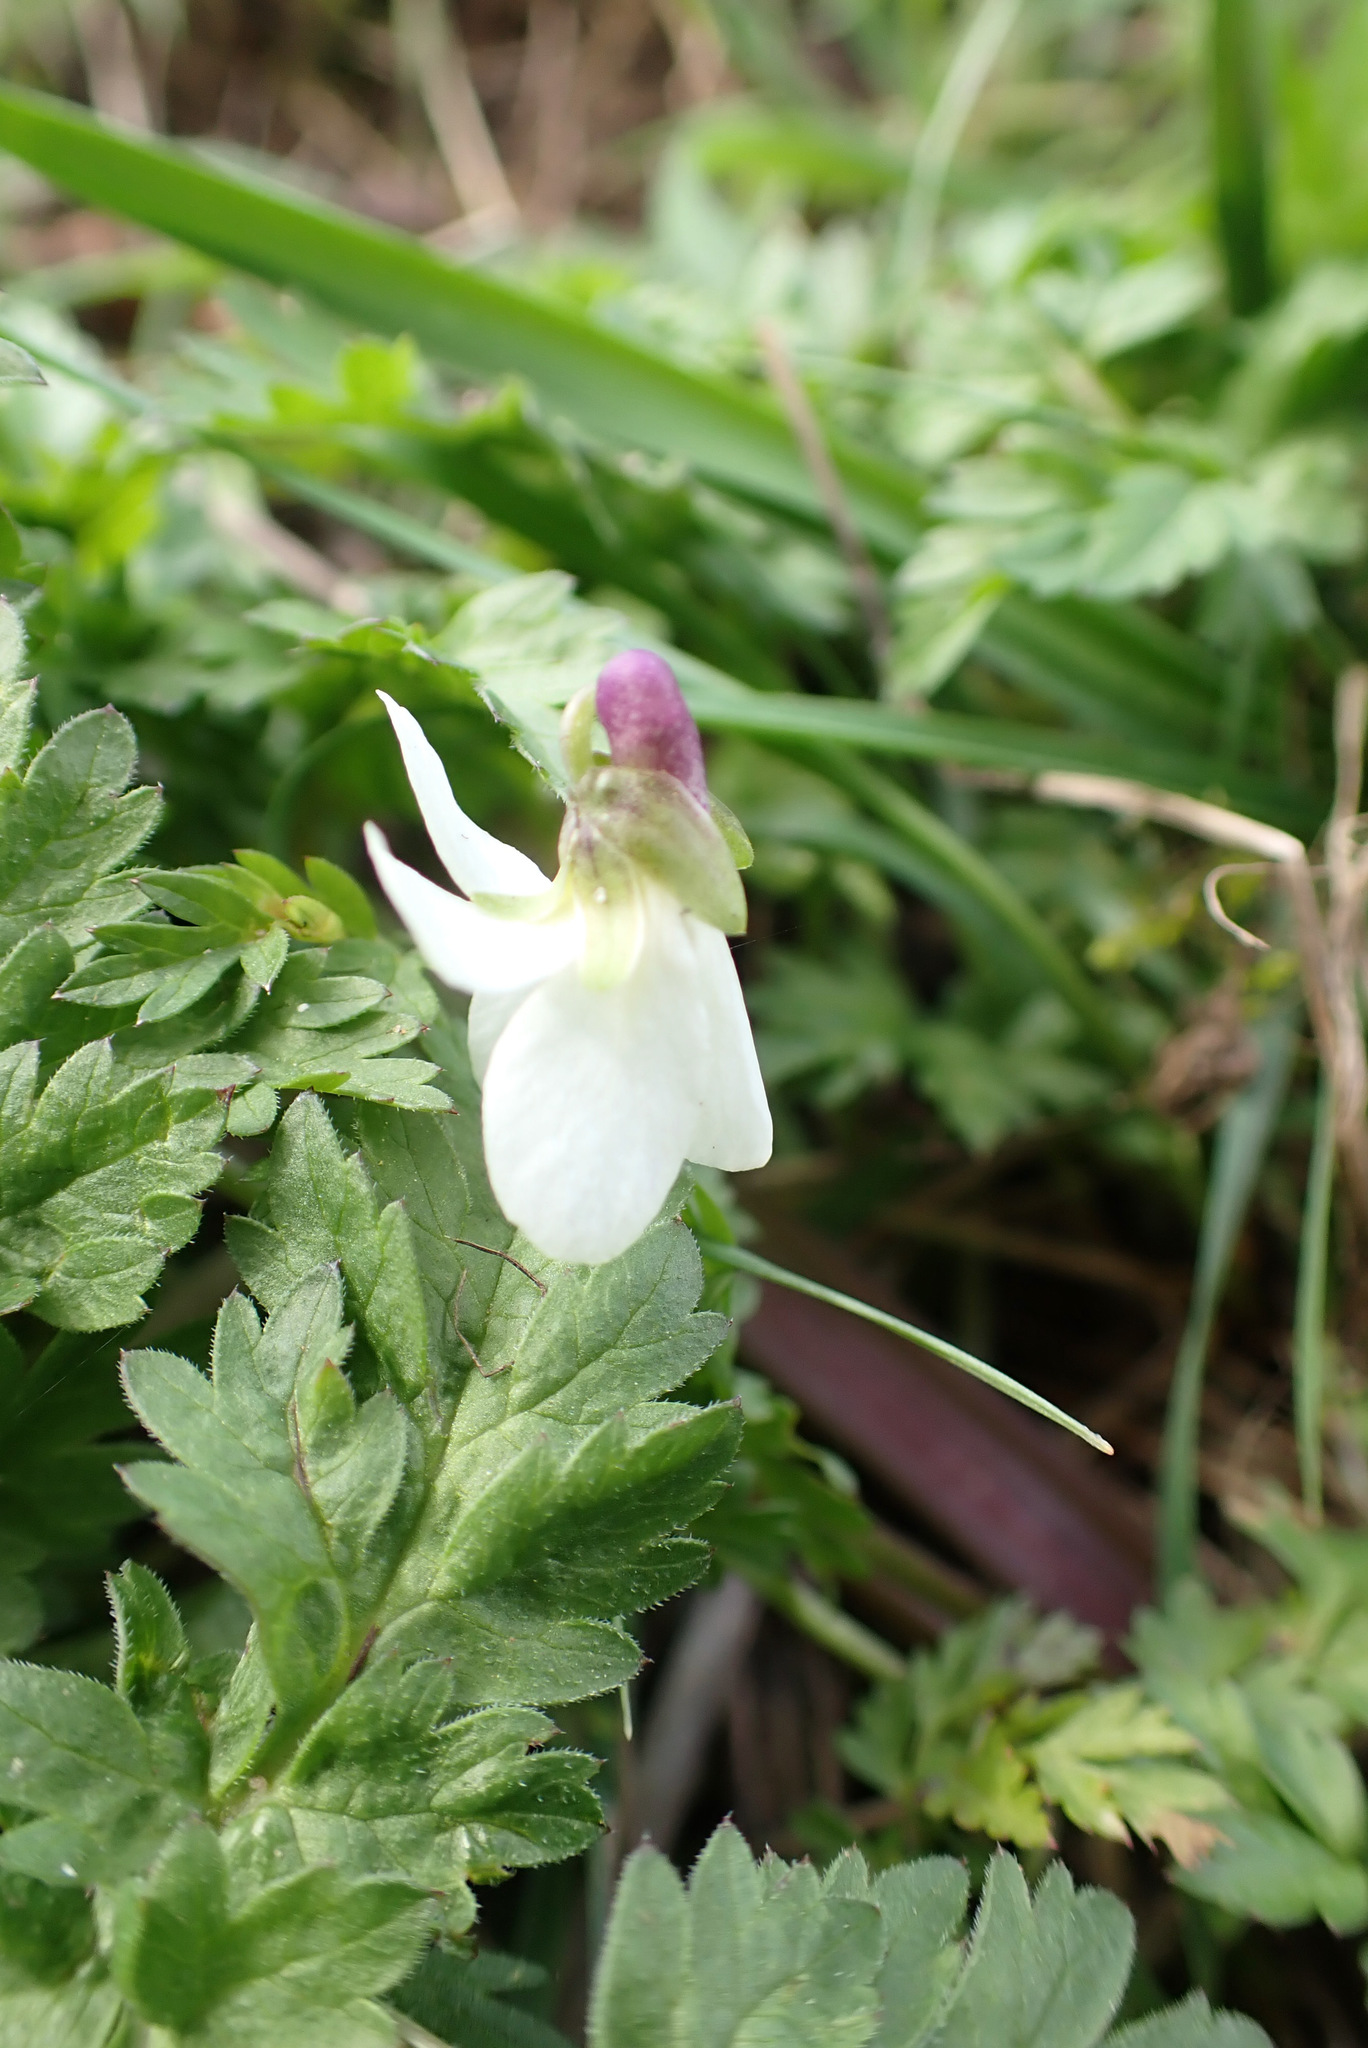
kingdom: Plantae
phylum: Tracheophyta
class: Magnoliopsida
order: Malpighiales
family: Violaceae
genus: Viola
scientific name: Viola odorata
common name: Sweet violet
